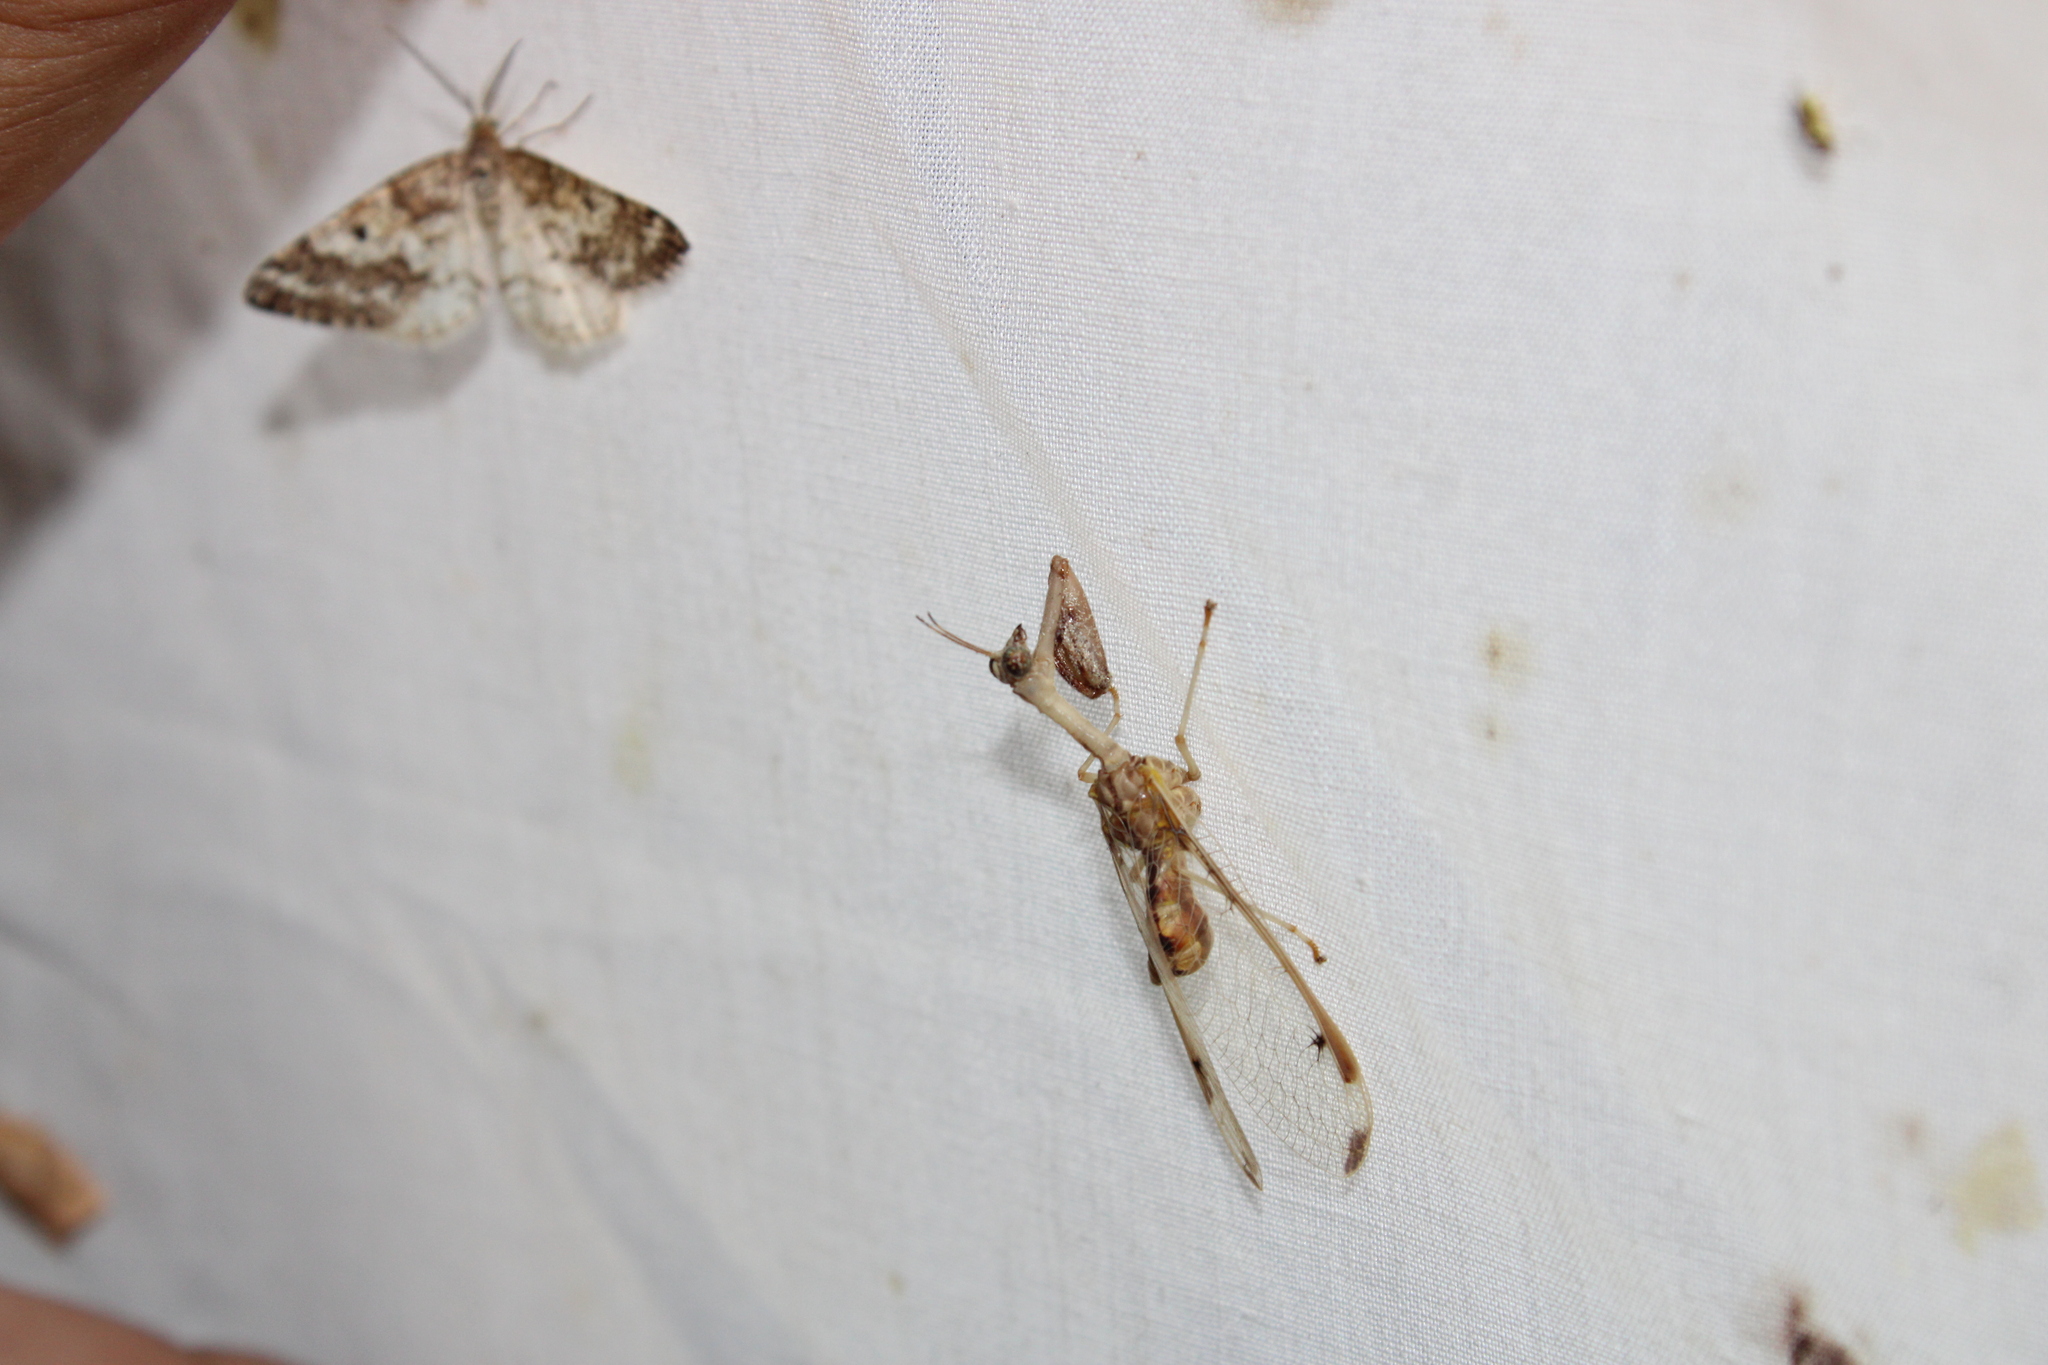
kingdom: Animalia
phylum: Arthropoda
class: Insecta
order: Neuroptera
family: Mantispidae
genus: Dicromantispa
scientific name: Dicromantispa interrupta
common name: Four-spotted mantidfly
